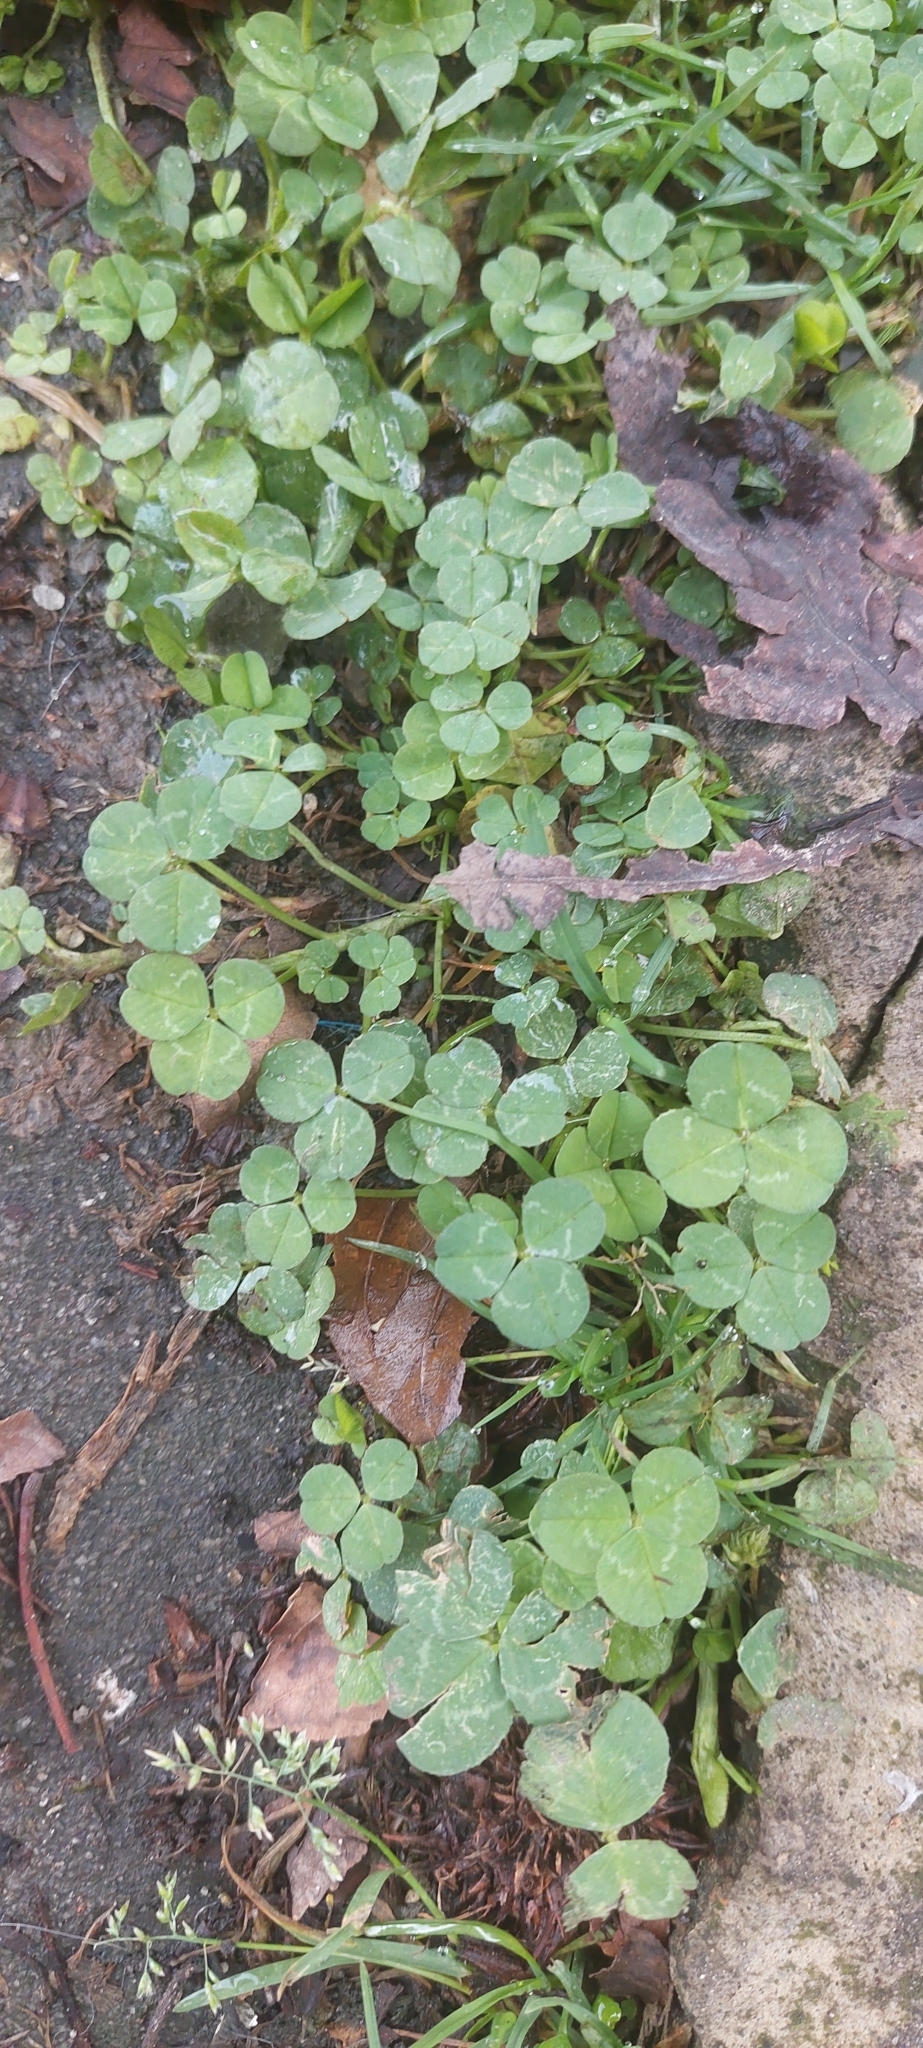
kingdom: Plantae
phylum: Tracheophyta
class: Magnoliopsida
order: Fabales
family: Fabaceae
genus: Trifolium
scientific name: Trifolium repens
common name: White clover
